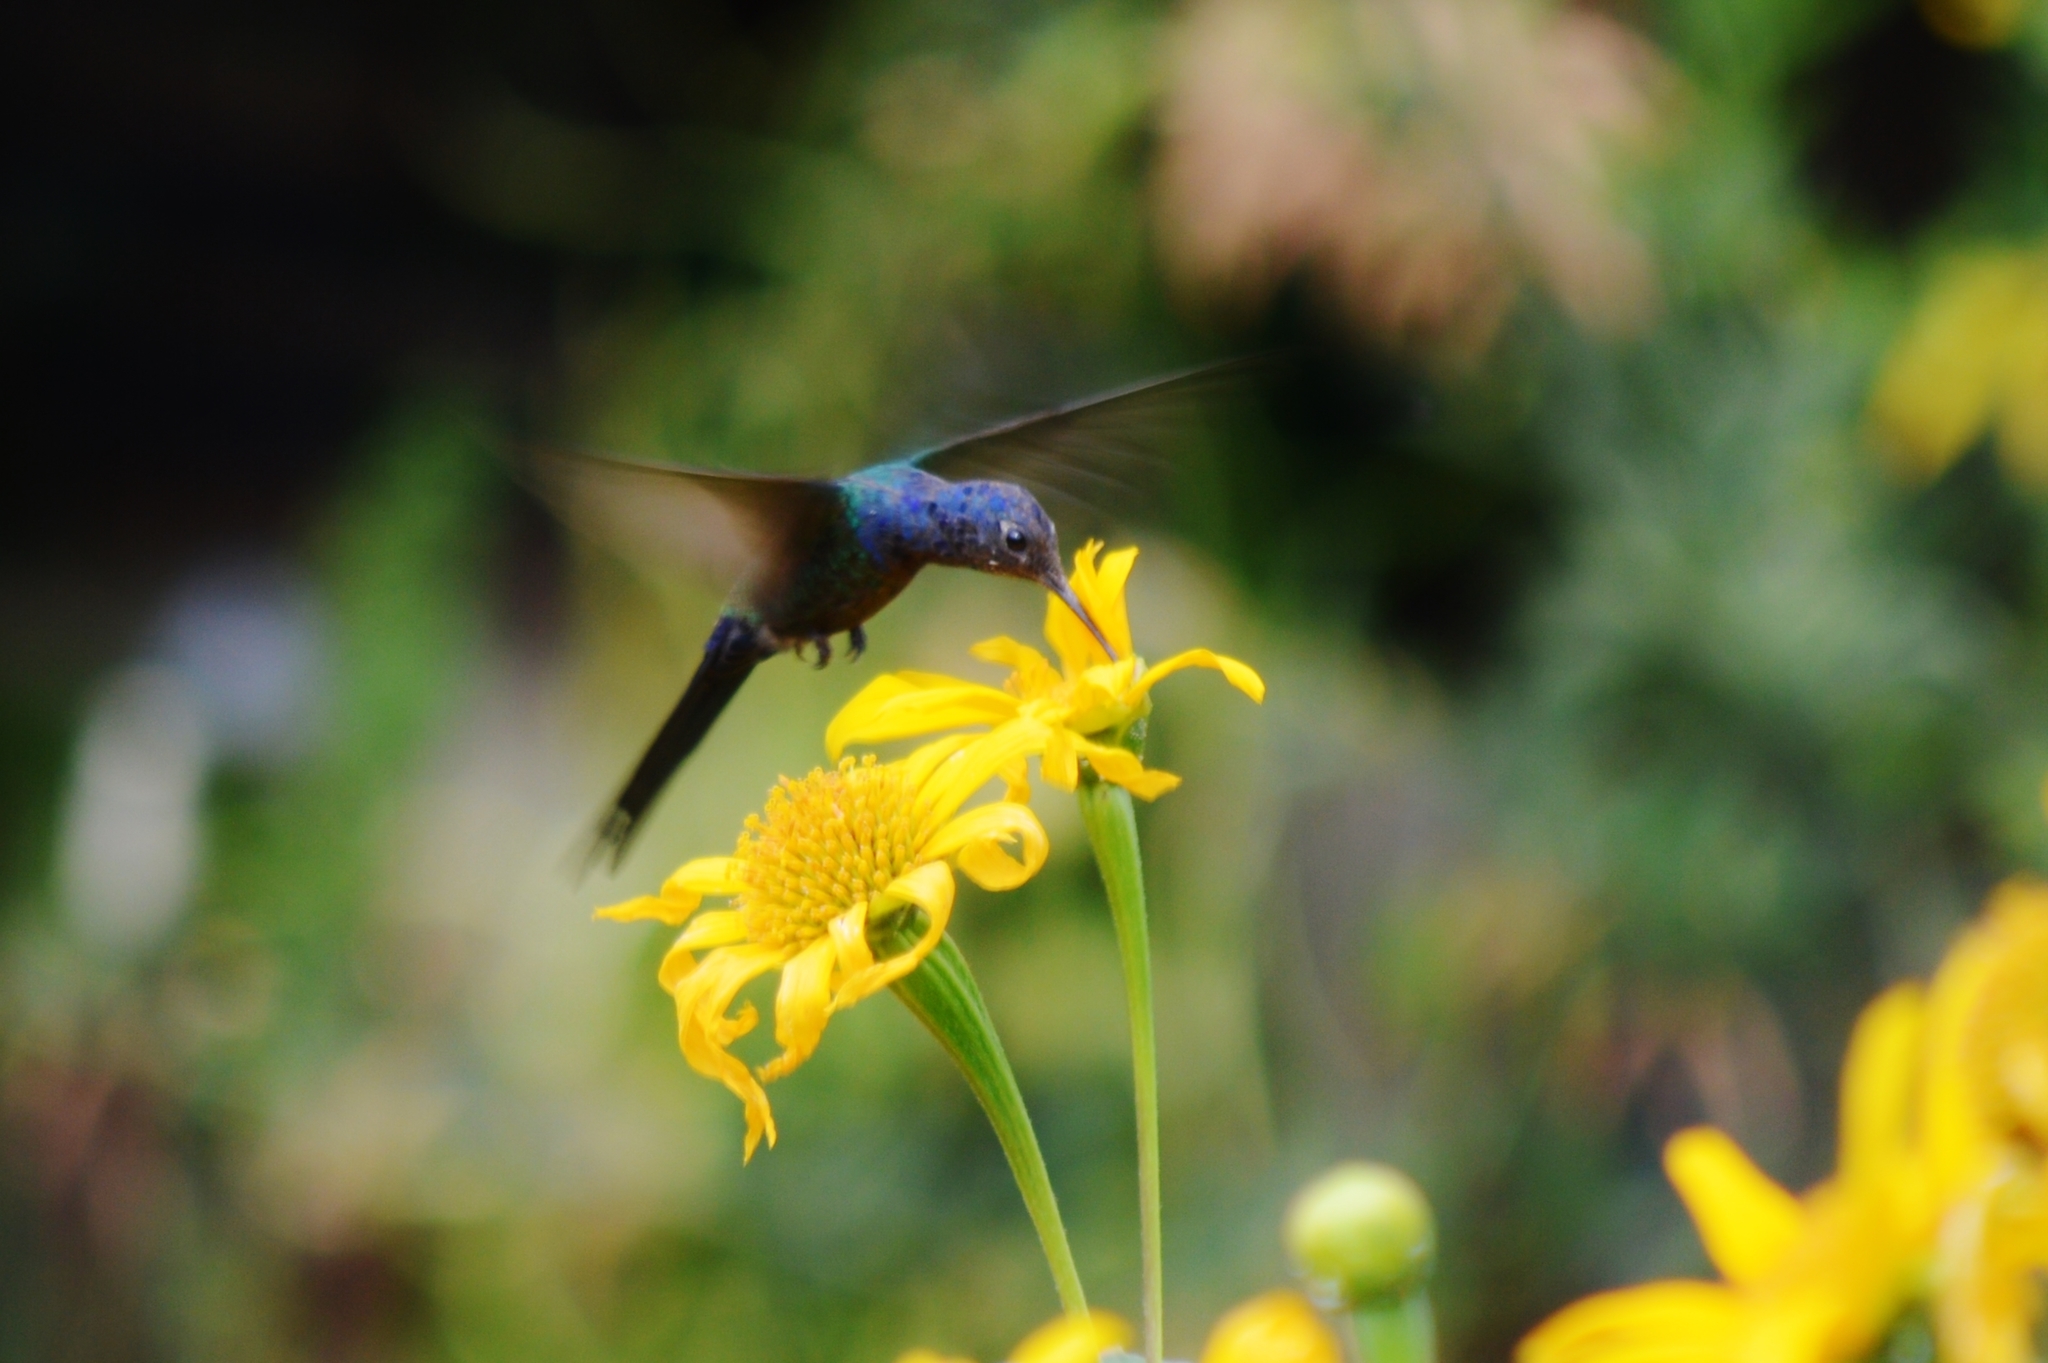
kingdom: Animalia
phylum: Chordata
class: Aves
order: Apodiformes
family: Trochilidae
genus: Eupetomena
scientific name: Eupetomena macroura
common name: Swallow-tailed hummingbird
